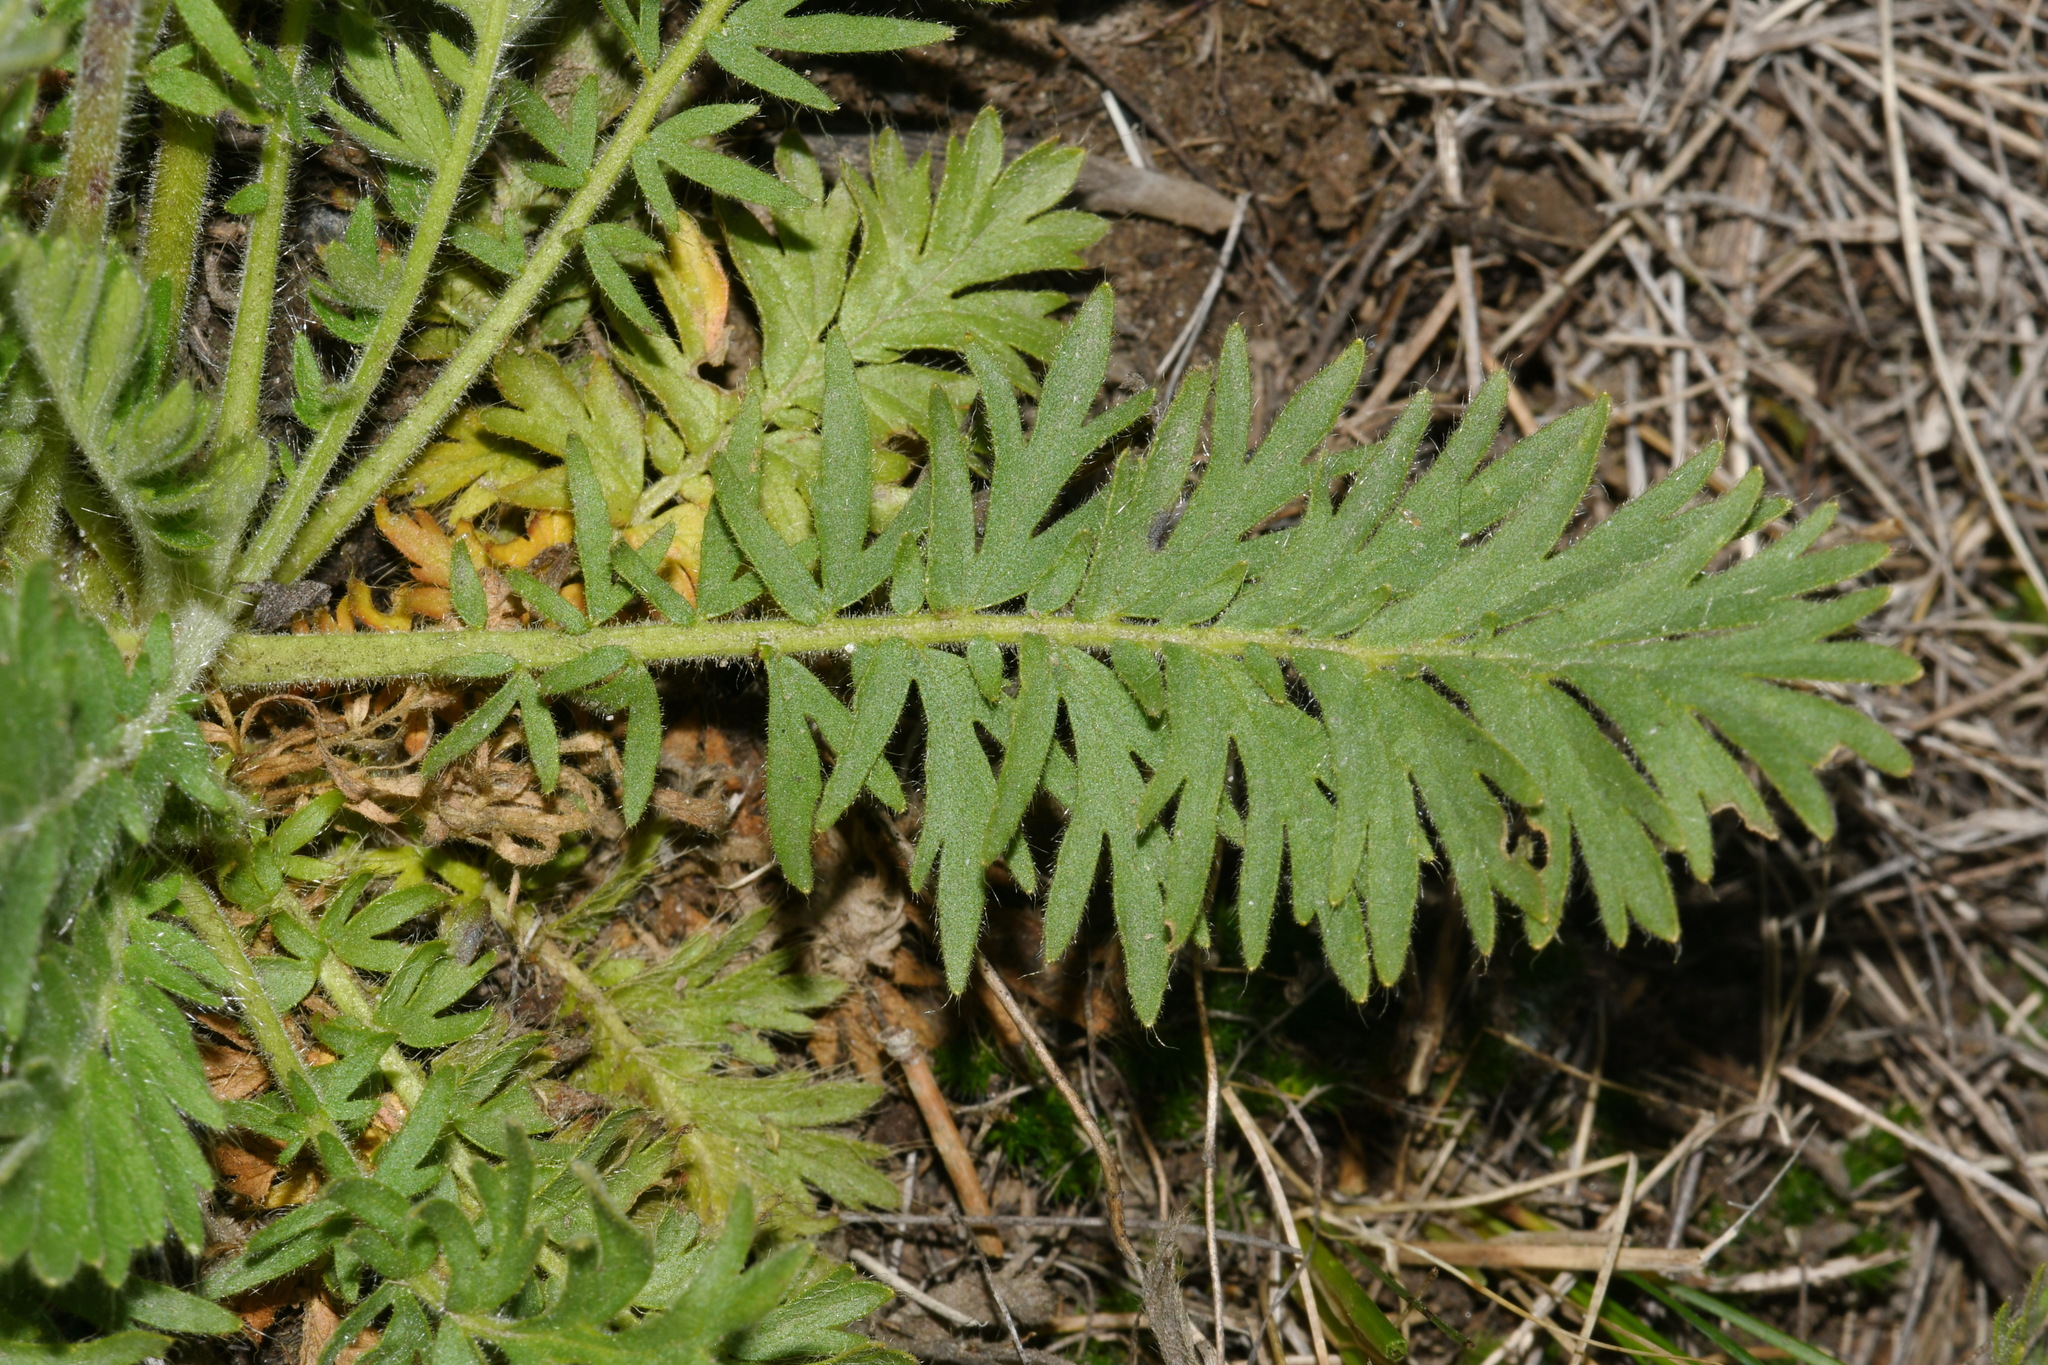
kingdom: Plantae
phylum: Tracheophyta
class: Magnoliopsida
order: Rosales
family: Rosaceae
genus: Geum
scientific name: Geum triflorum
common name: Old man's whiskers
